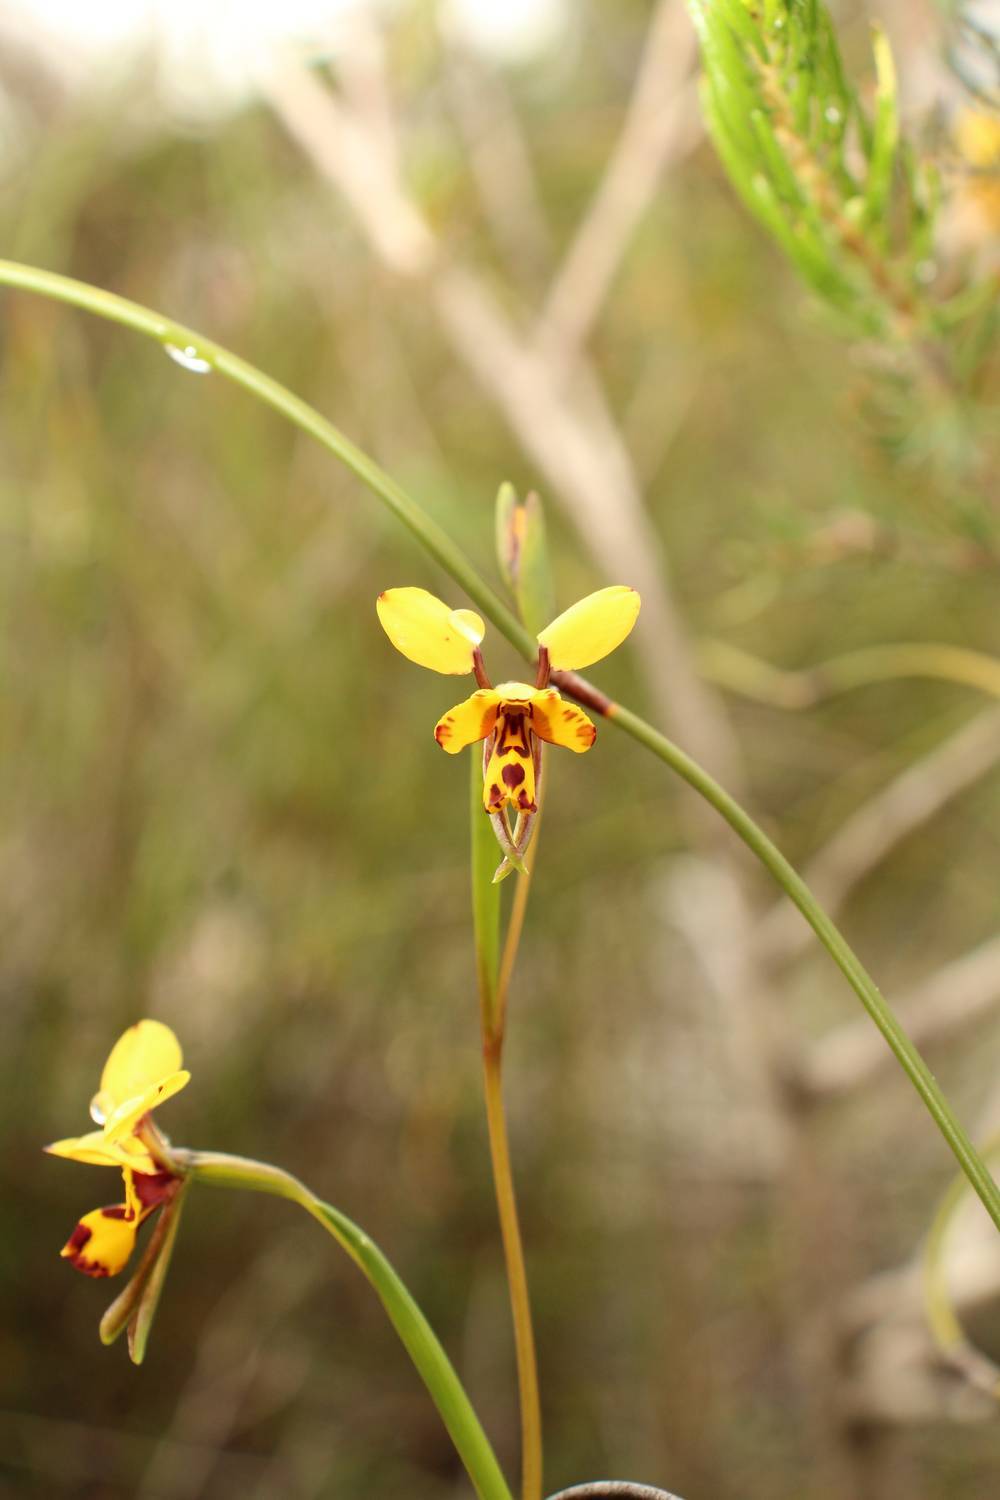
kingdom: Plantae
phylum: Tracheophyta
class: Liliopsida
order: Asparagales
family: Orchidaceae
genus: Diuris
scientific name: Diuris laxiflora
